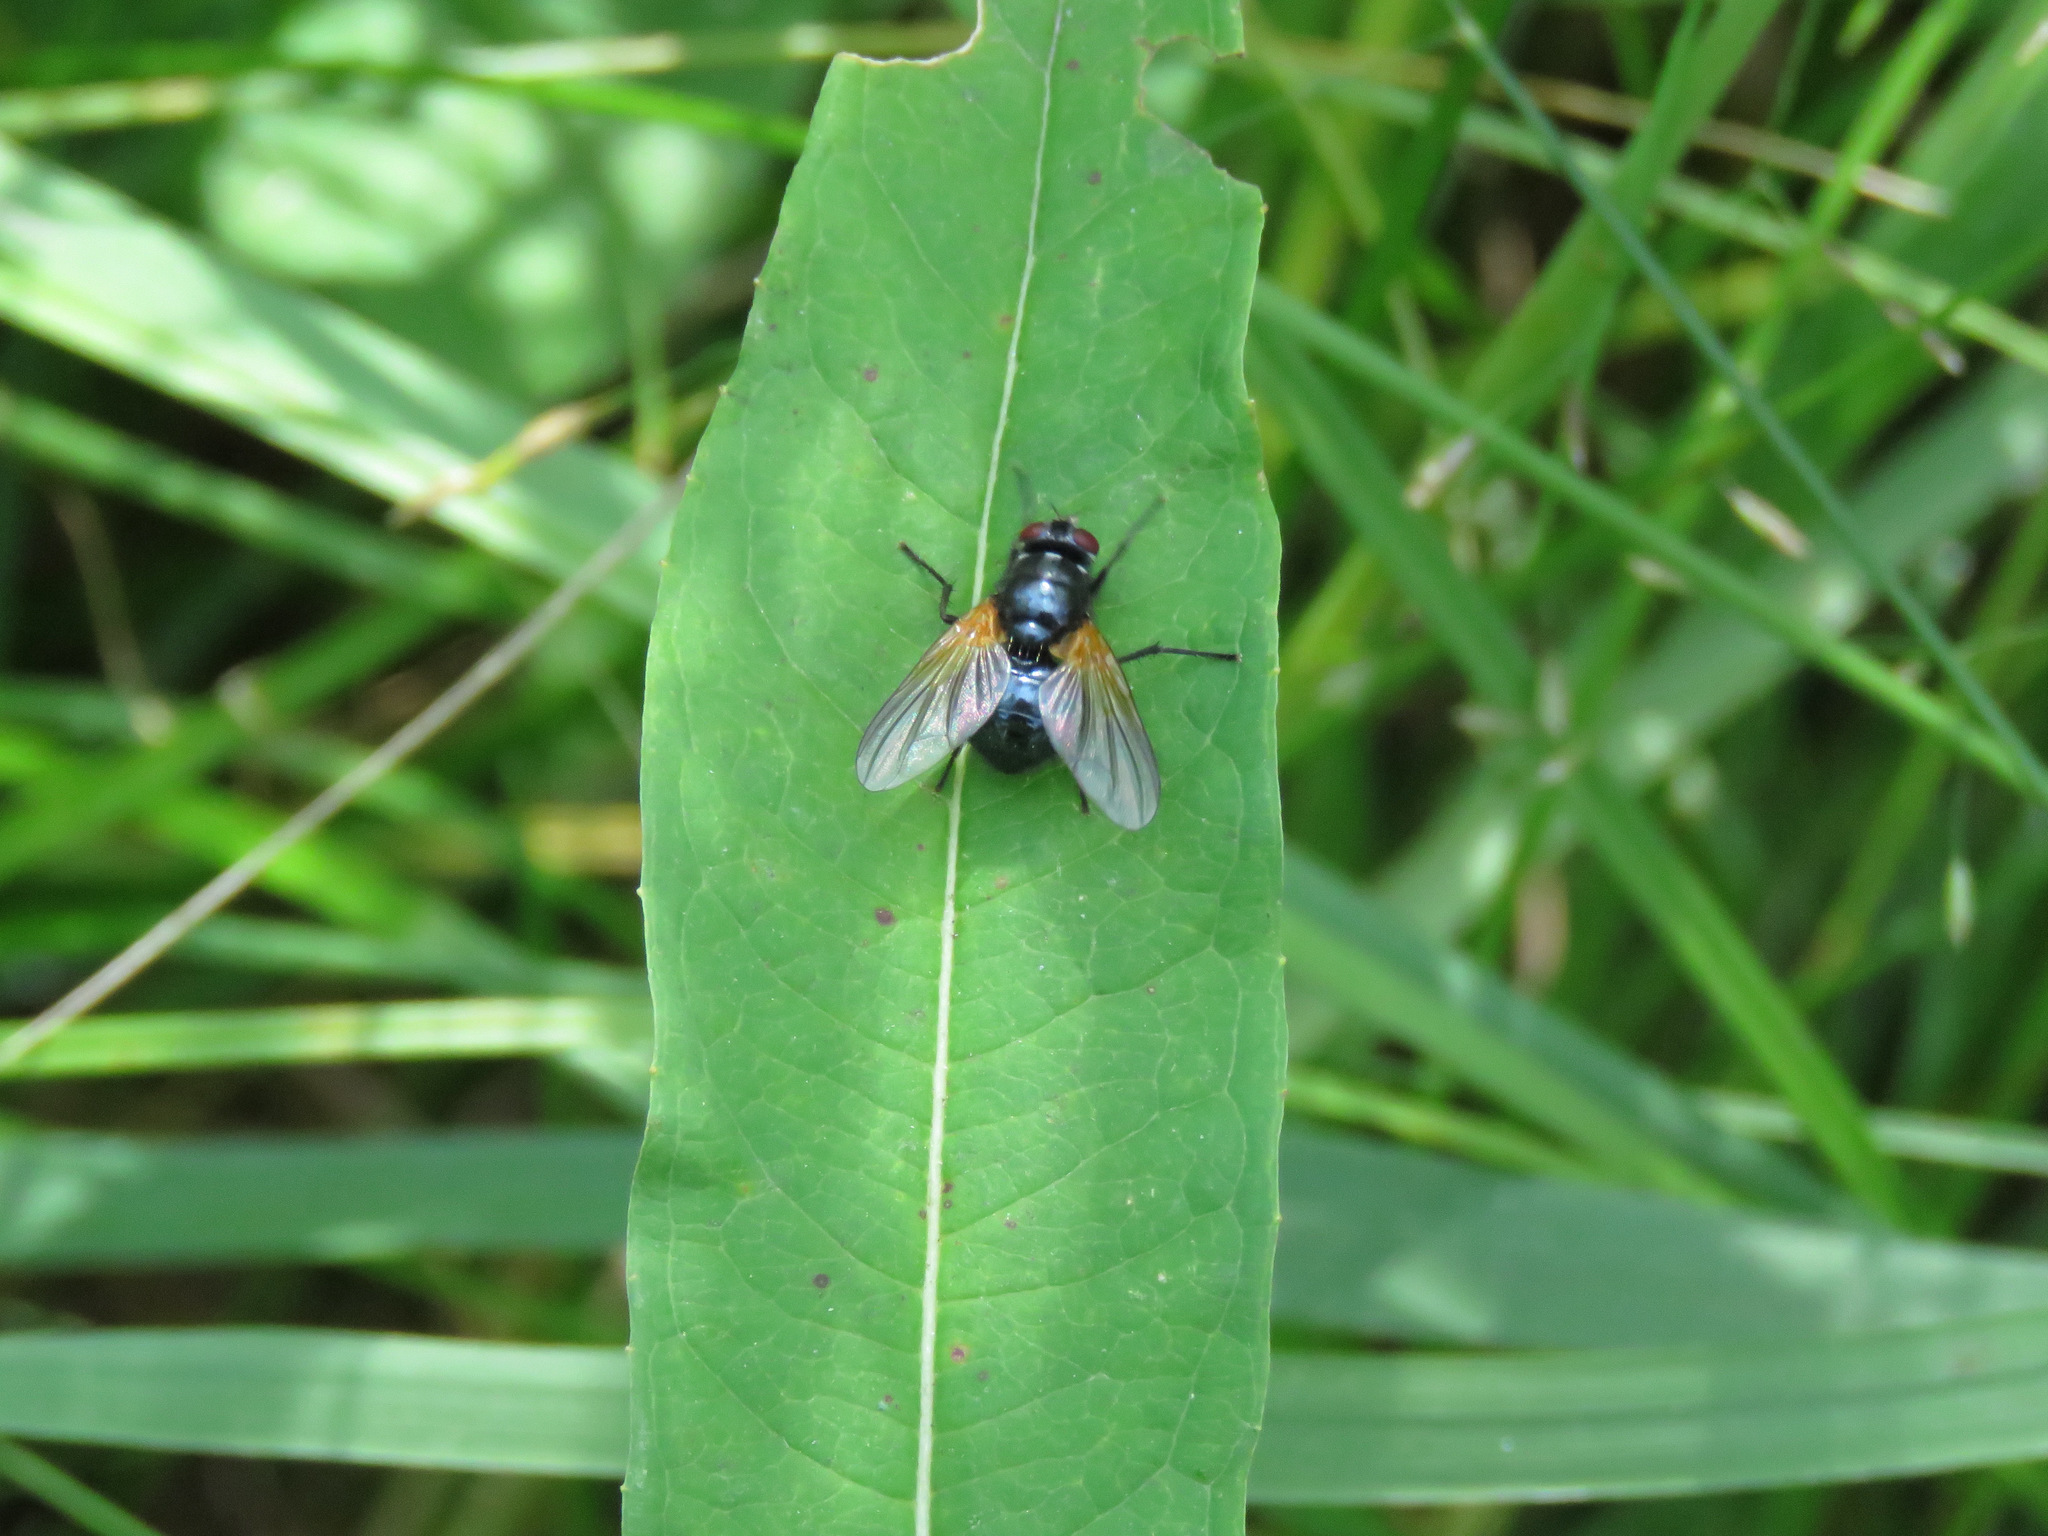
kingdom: Animalia
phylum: Arthropoda
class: Insecta
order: Diptera
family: Muscidae
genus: Mesembrina
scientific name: Mesembrina latreillii
